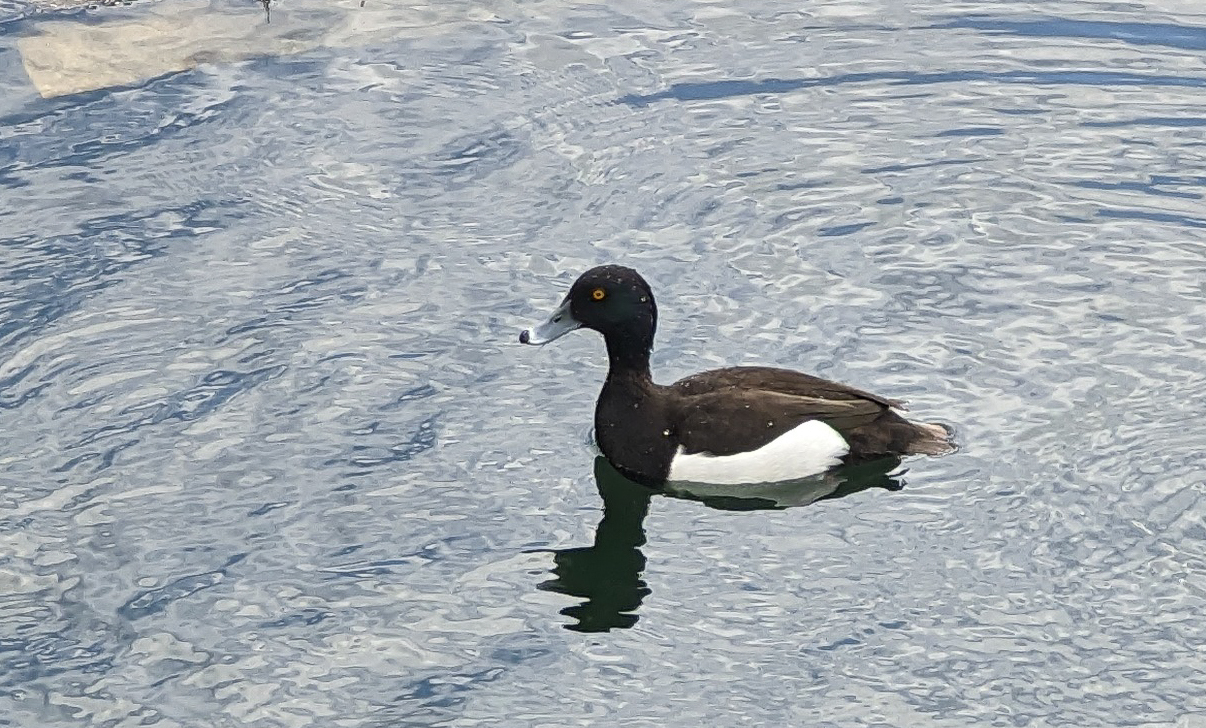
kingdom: Animalia
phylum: Chordata
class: Aves
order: Anseriformes
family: Anatidae
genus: Aythya
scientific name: Aythya fuligula
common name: Tufted duck
